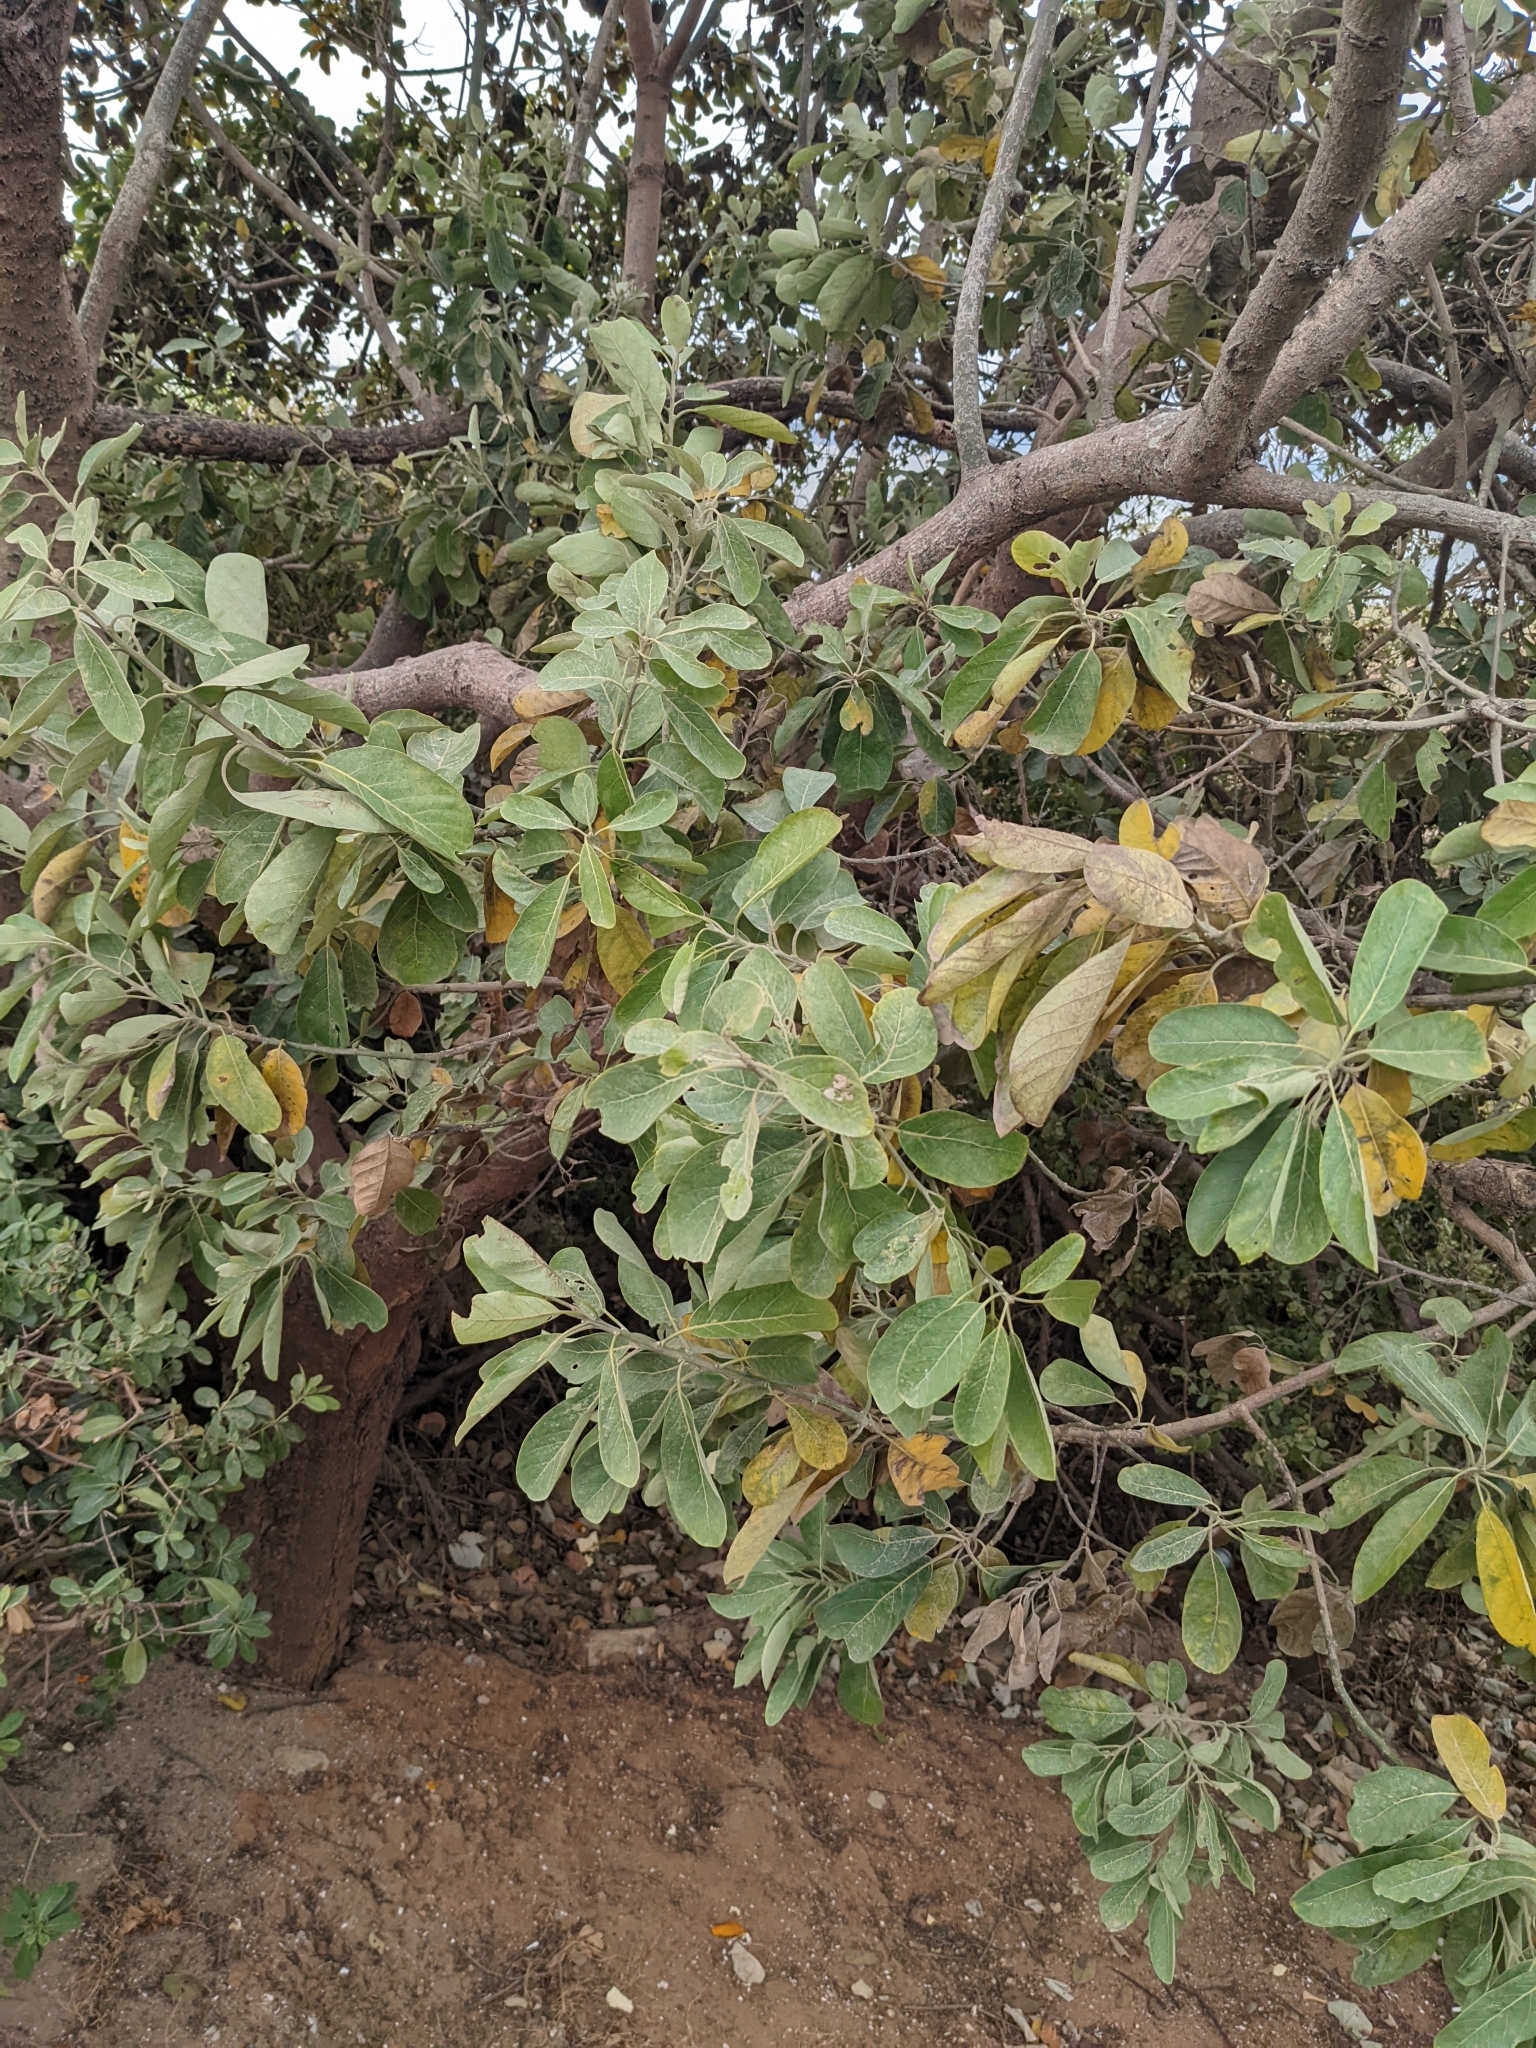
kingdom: Plantae
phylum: Tracheophyta
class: Magnoliopsida
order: Laurales
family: Lauraceae
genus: Litsea
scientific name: Litsea glutinosa
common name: Indian-laurel
